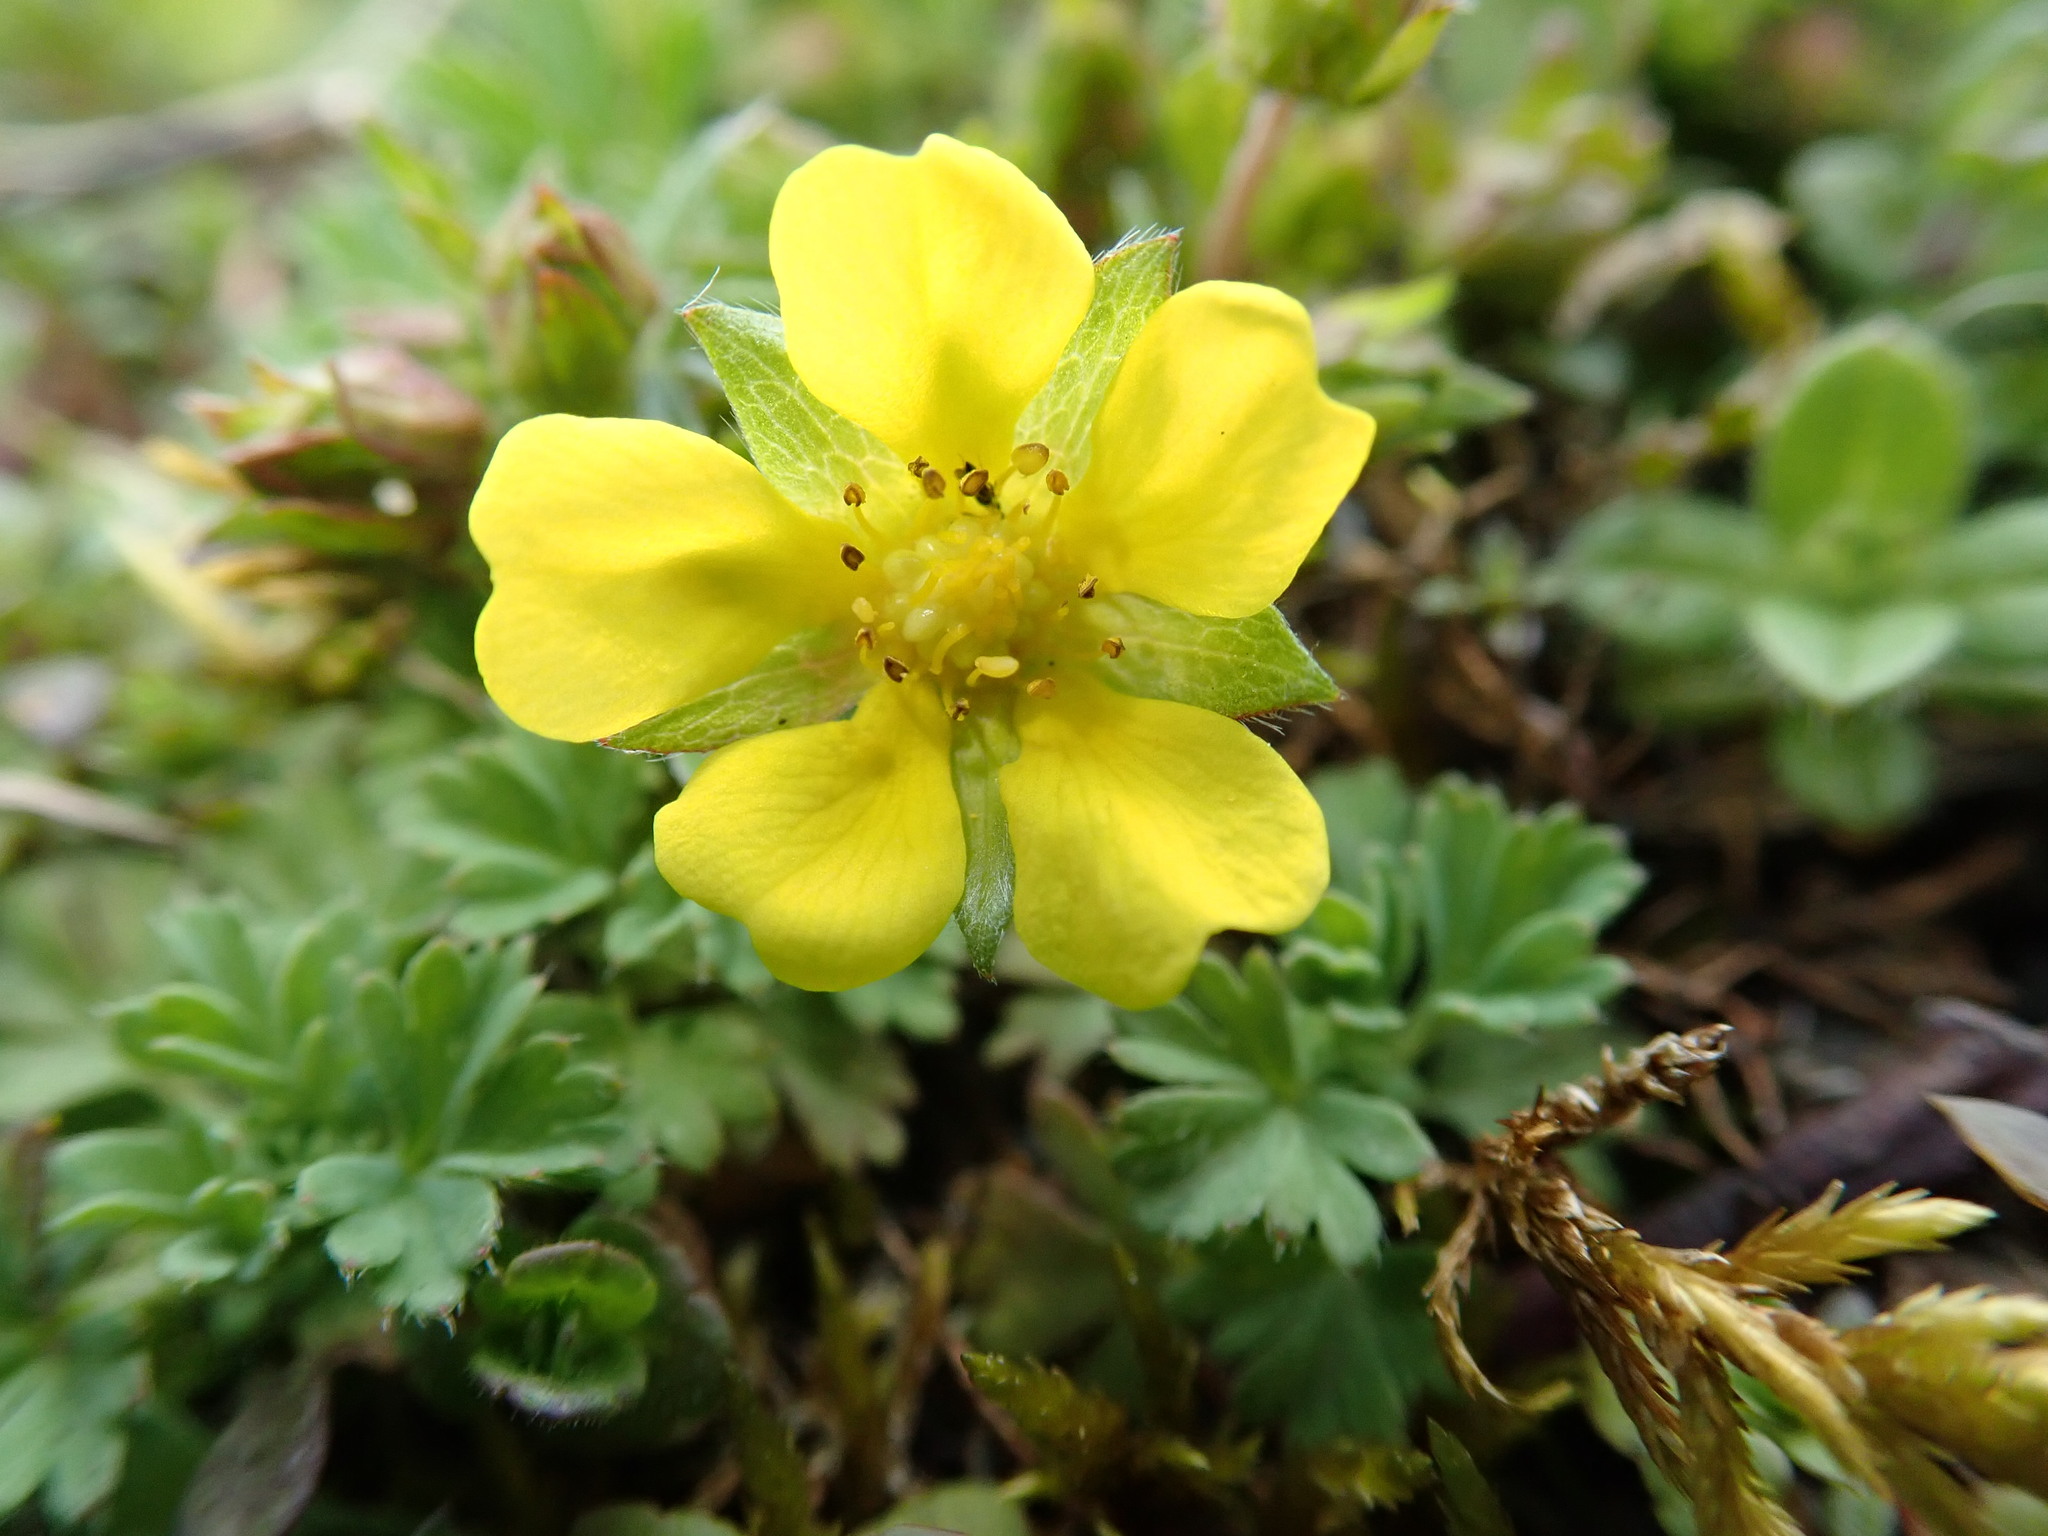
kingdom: Plantae
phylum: Tracheophyta
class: Magnoliopsida
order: Rosales
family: Rosaceae
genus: Potentilla
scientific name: Potentilla verna
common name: Spring cinquefoil
